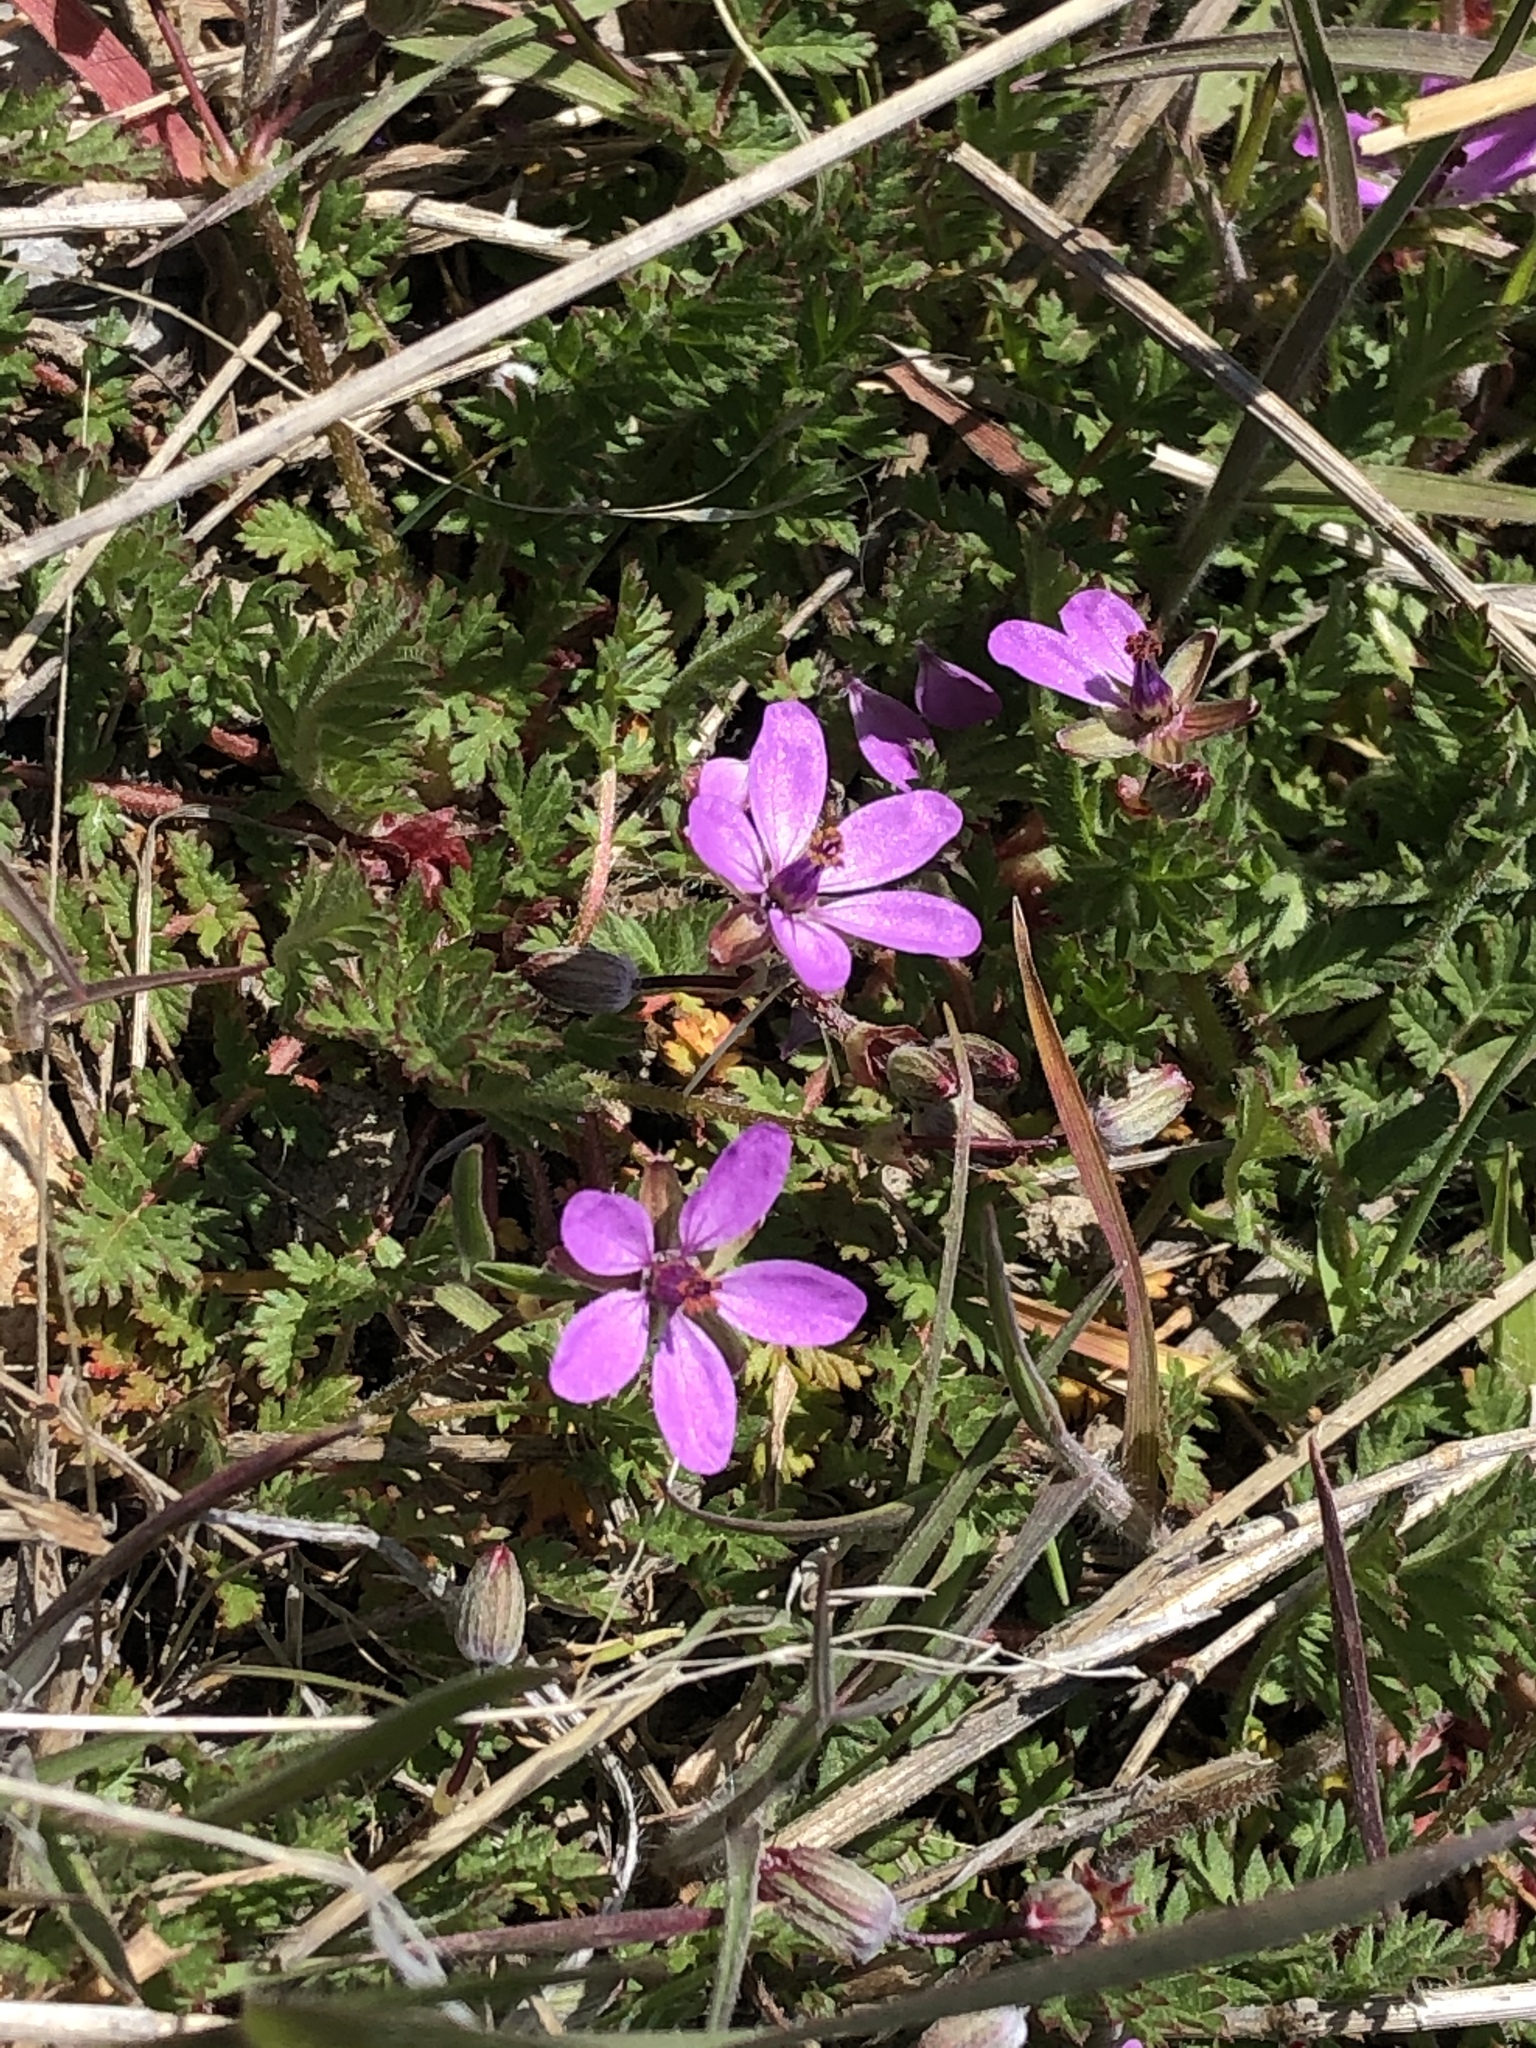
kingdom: Plantae
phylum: Tracheophyta
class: Magnoliopsida
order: Geraniales
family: Geraniaceae
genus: Erodium
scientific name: Erodium cicutarium
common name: Common stork's-bill
